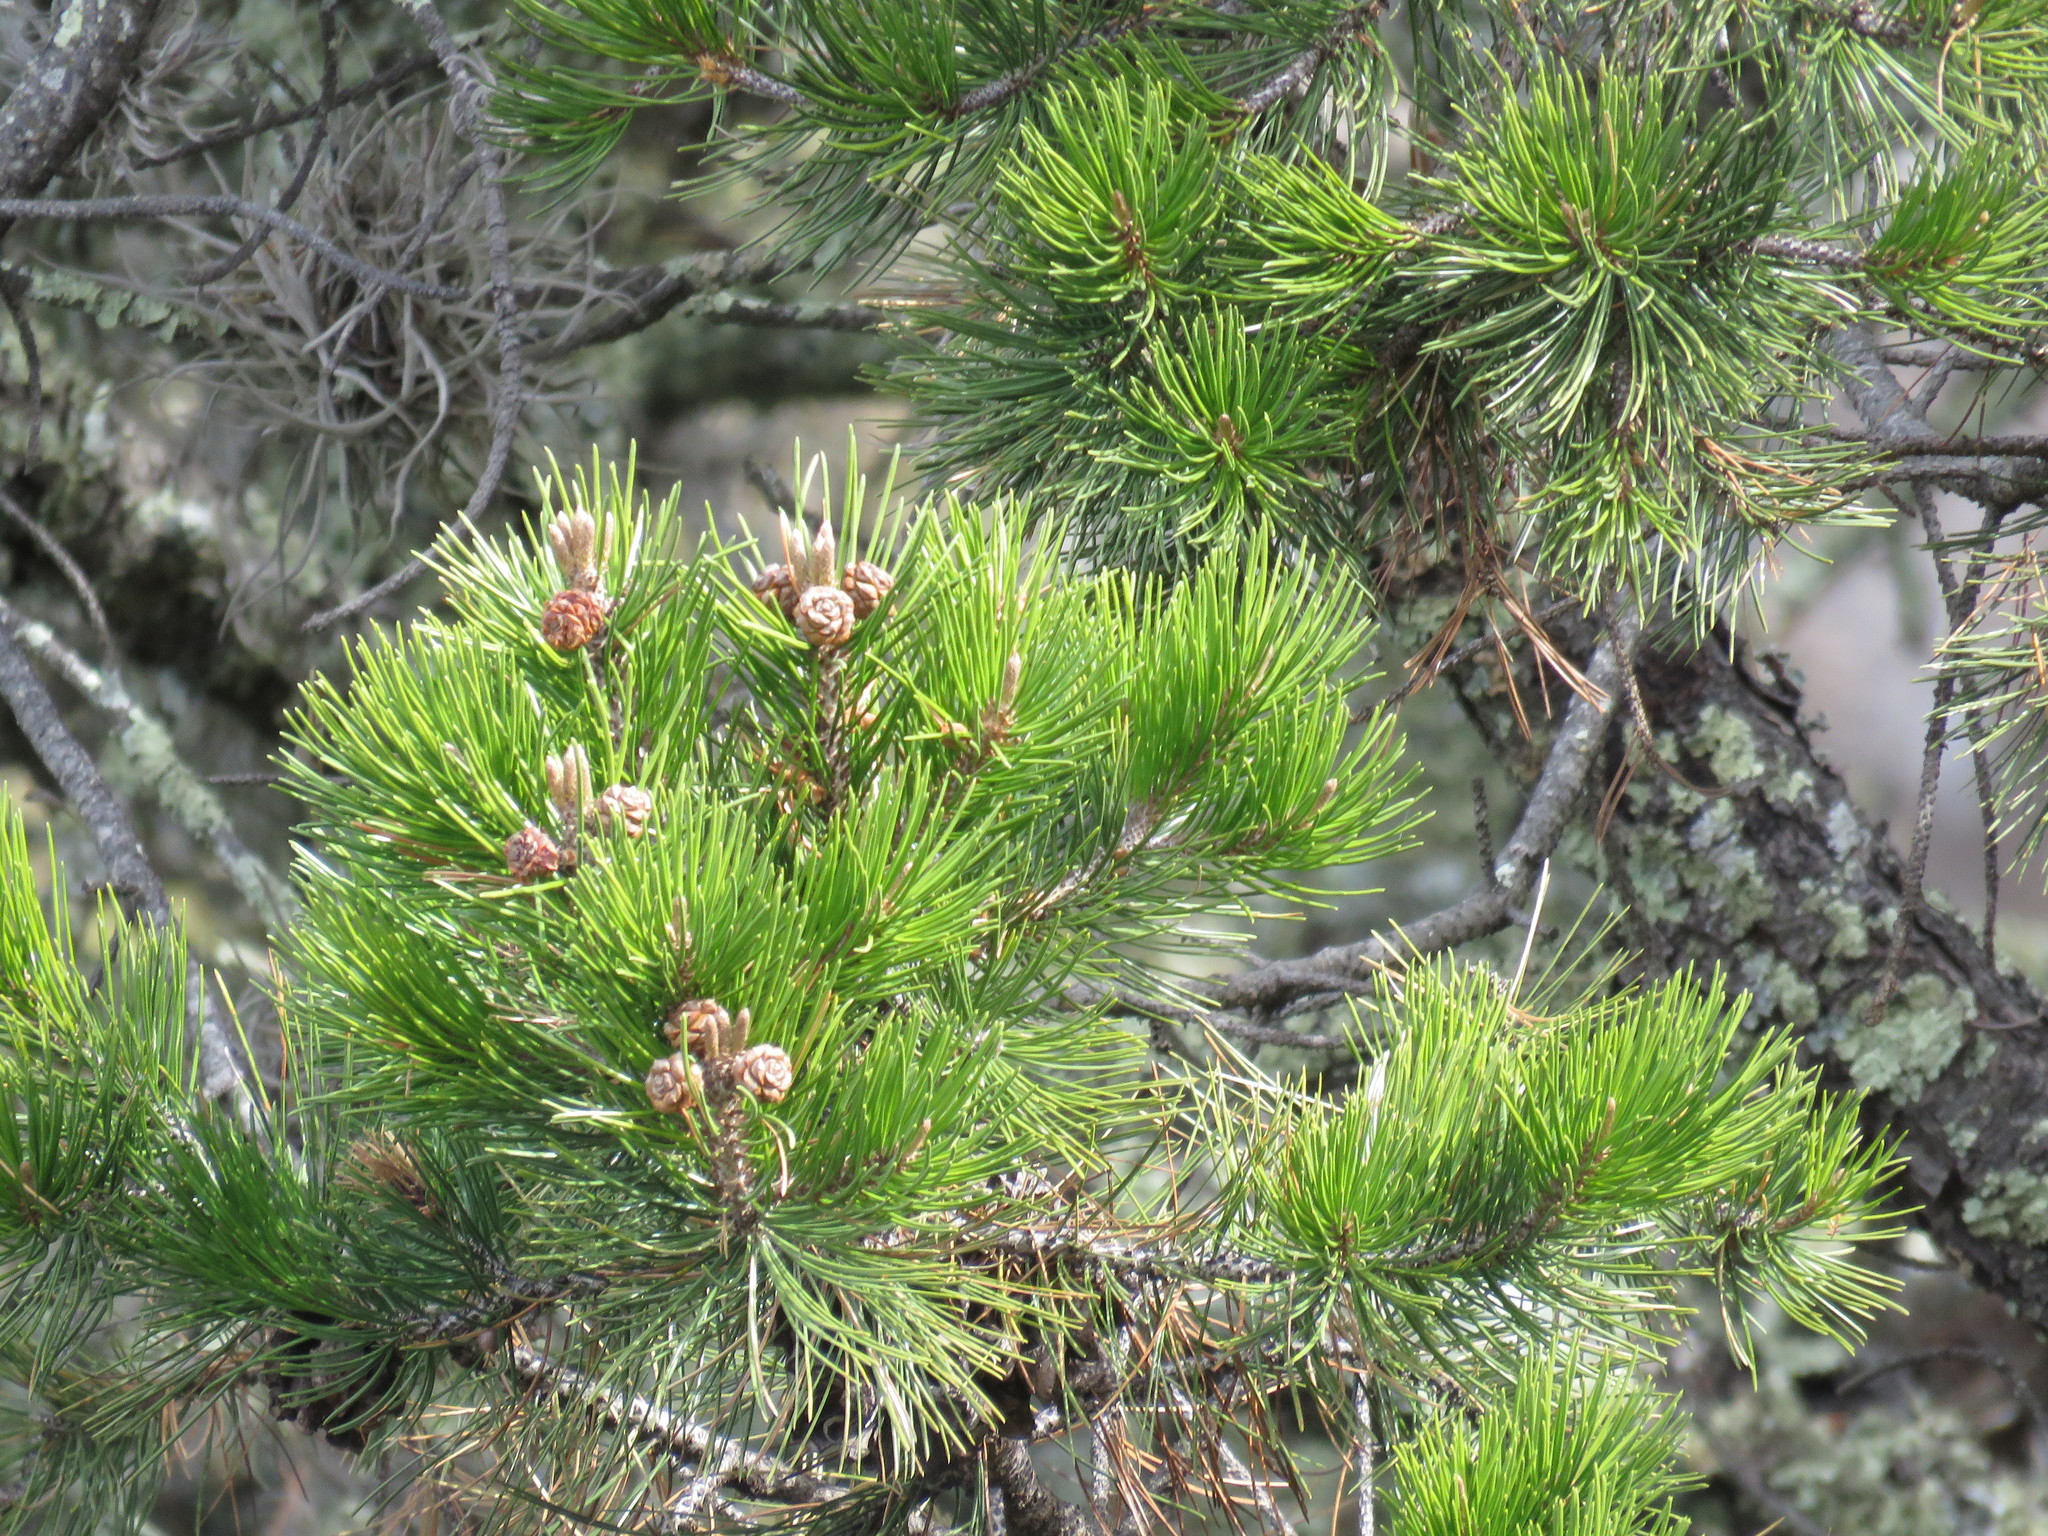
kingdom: Plantae
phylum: Tracheophyta
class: Pinopsida
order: Pinales
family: Pinaceae
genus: Pinus
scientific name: Pinus cembroides
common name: Mexican nut pine
